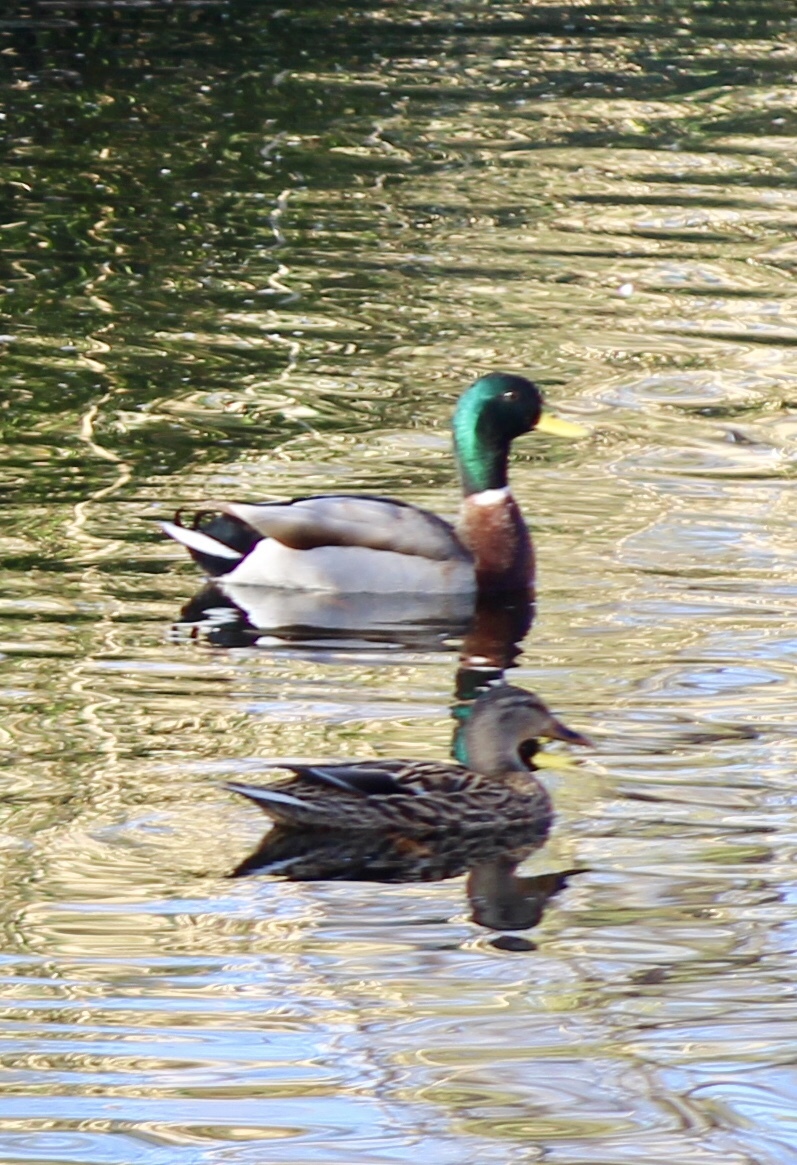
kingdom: Animalia
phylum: Chordata
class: Aves
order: Anseriformes
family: Anatidae
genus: Anas
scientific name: Anas platyrhynchos
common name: Mallard
